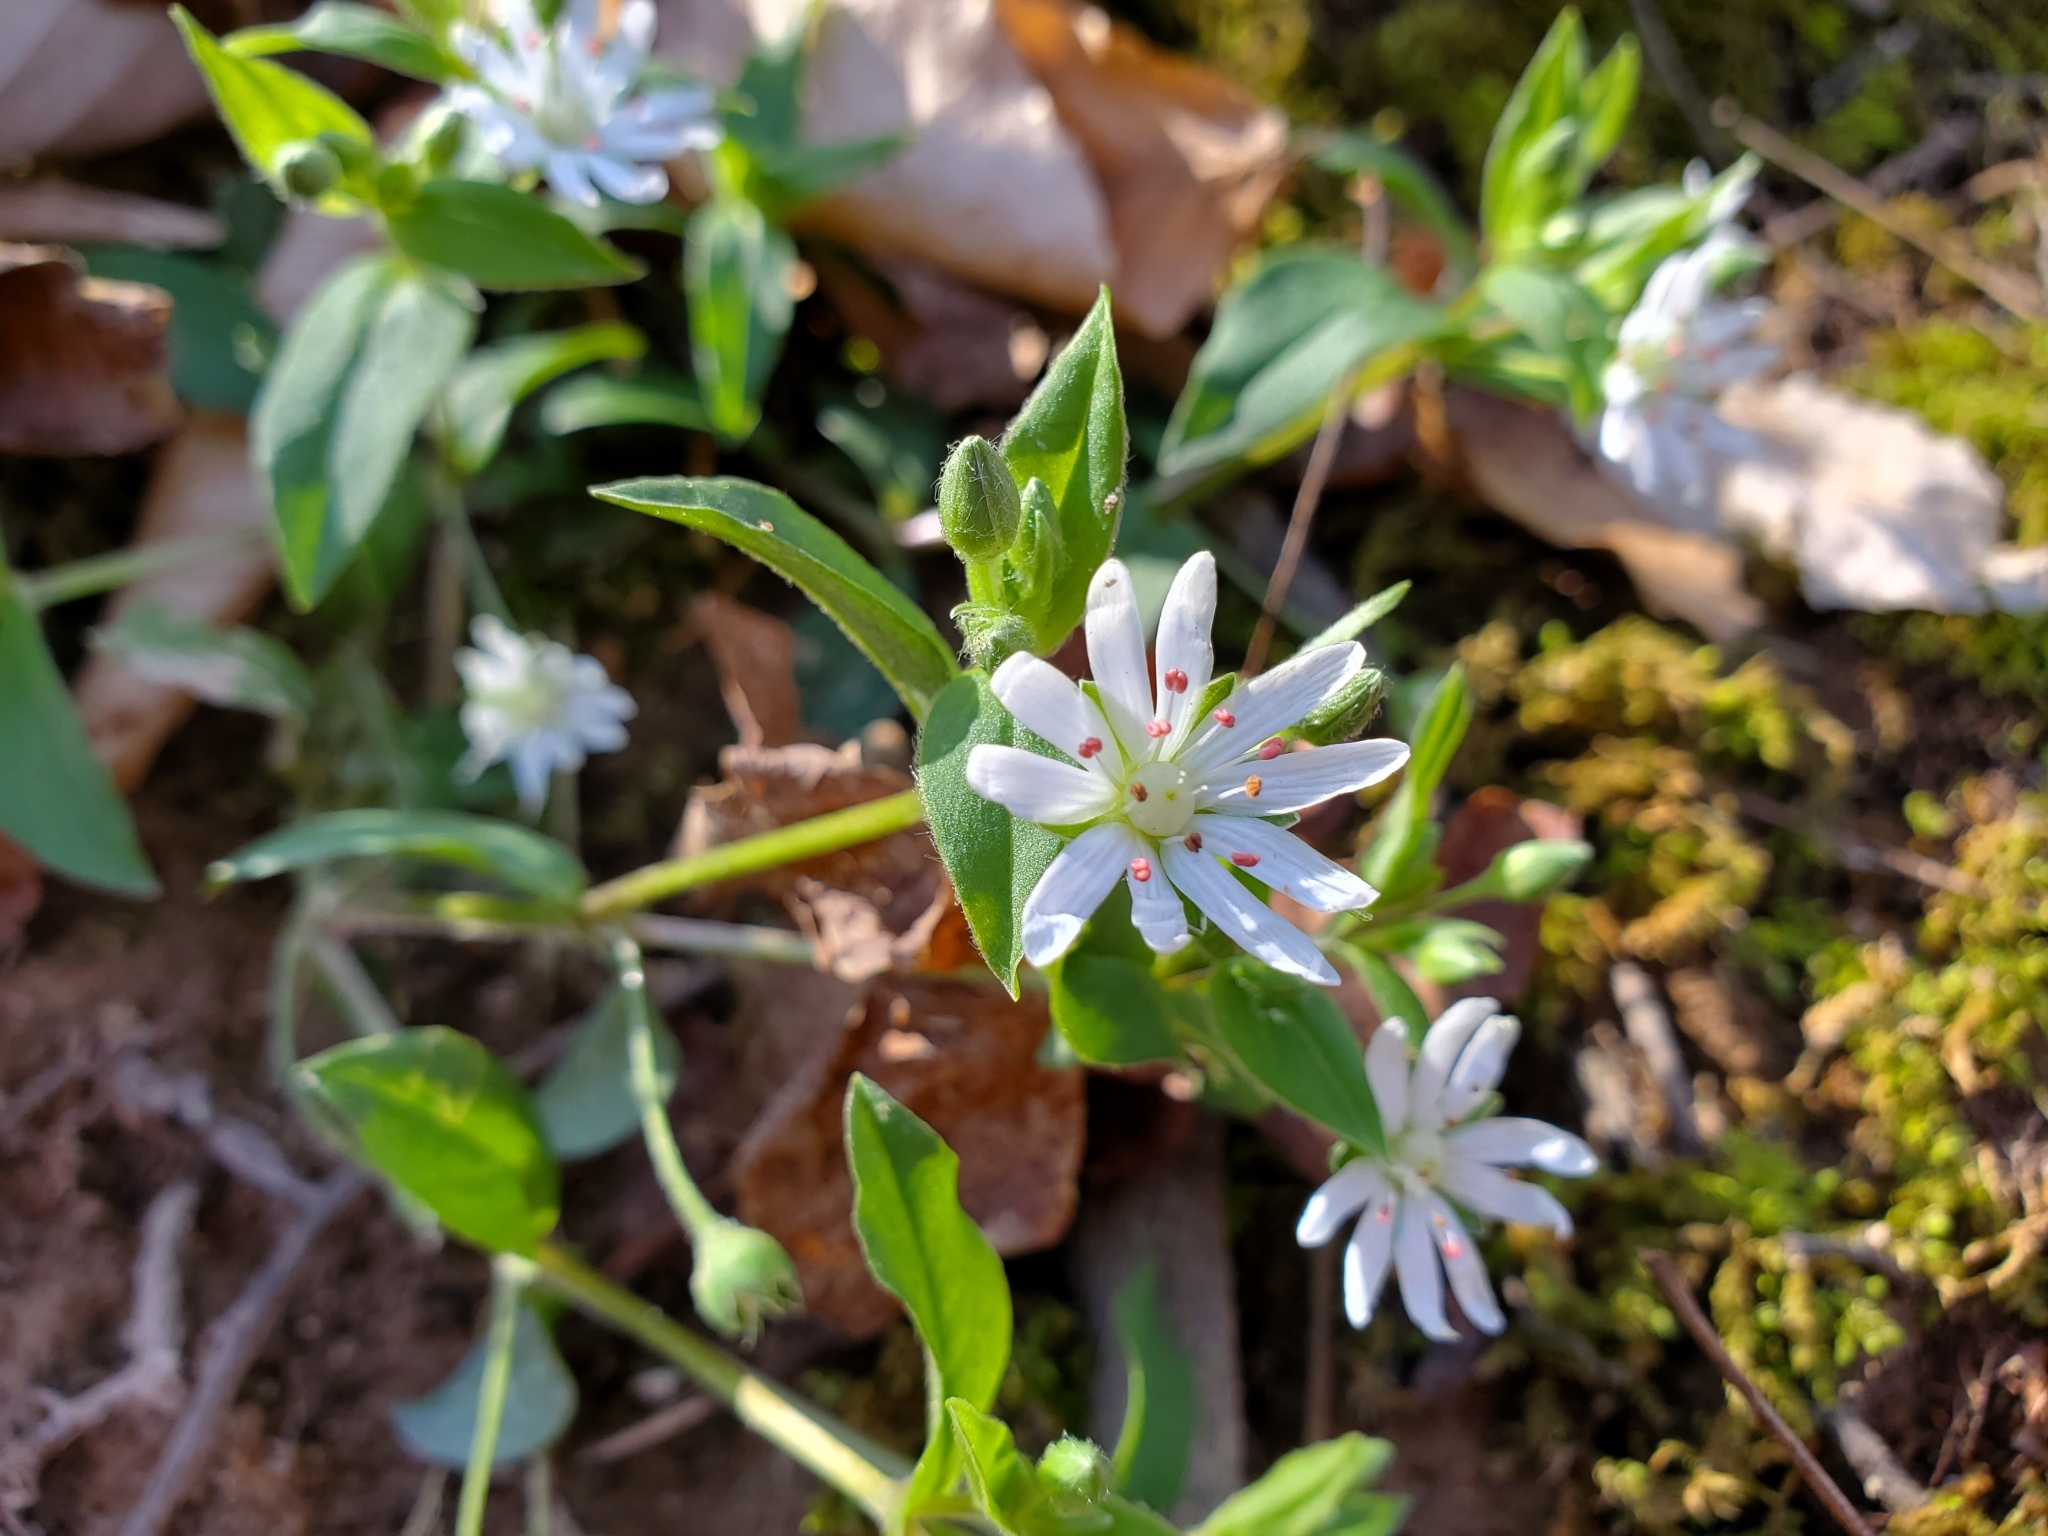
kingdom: Plantae
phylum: Tracheophyta
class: Magnoliopsida
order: Caryophyllales
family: Caryophyllaceae
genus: Stellaria
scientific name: Stellaria pubera
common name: Star chickweed
